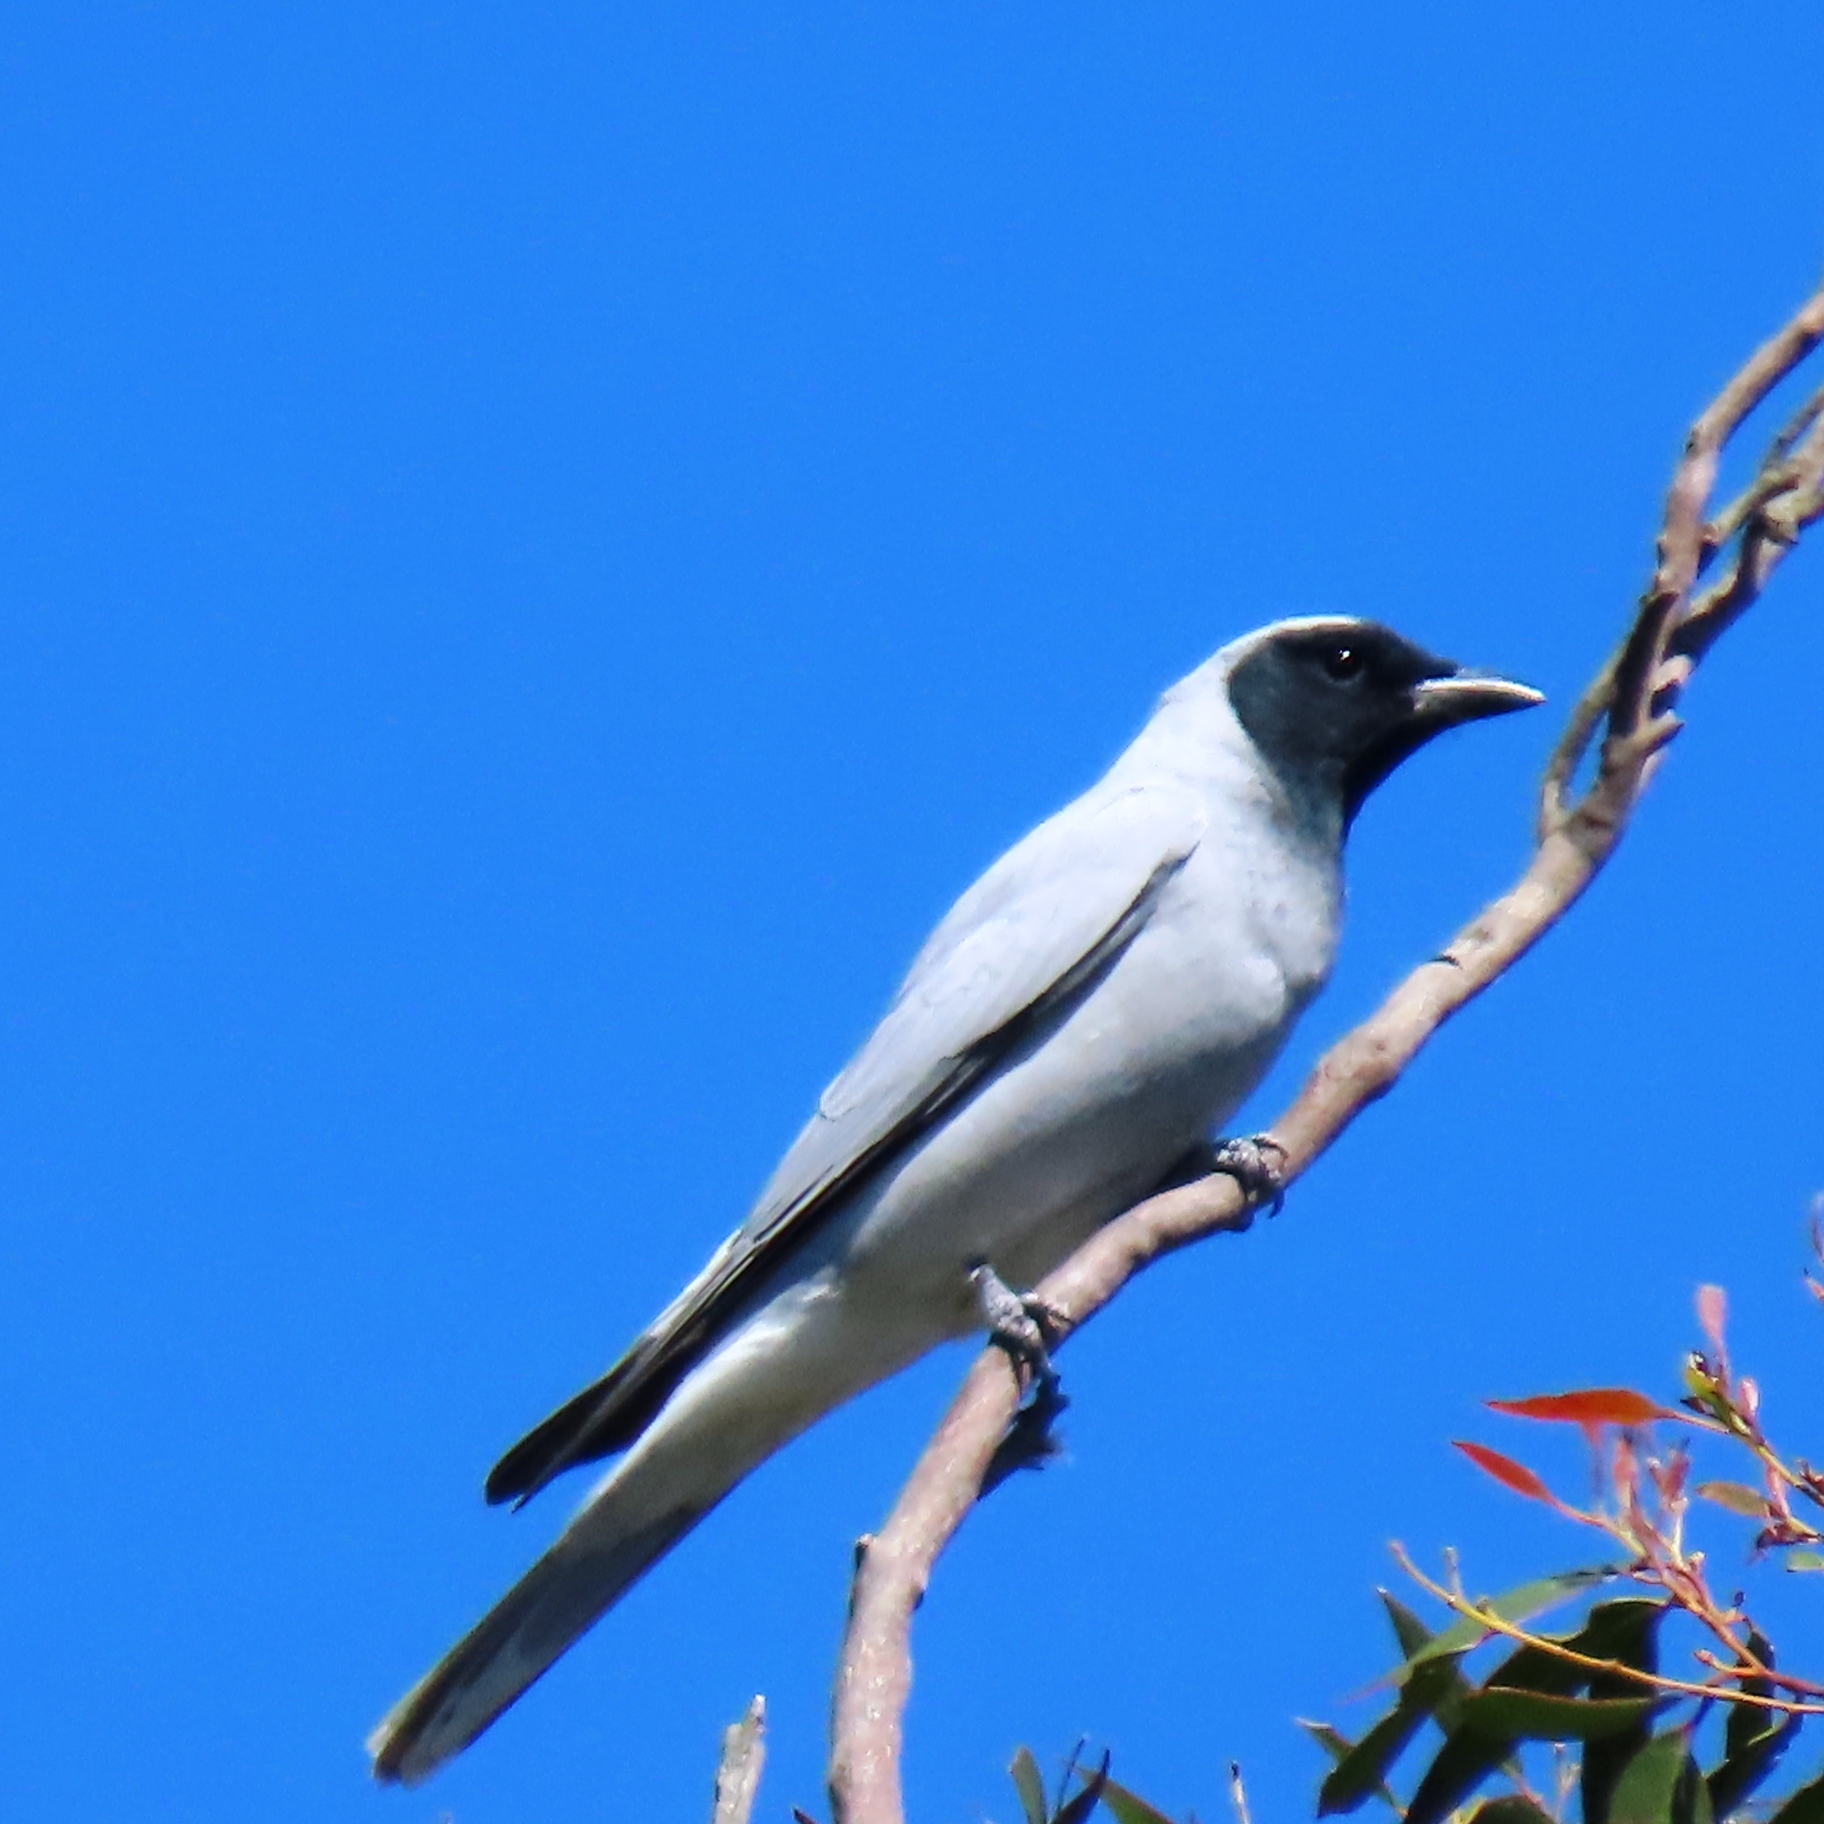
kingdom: Animalia
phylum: Chordata
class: Aves
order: Passeriformes
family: Campephagidae
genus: Coracina
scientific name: Coracina novaehollandiae
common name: Black-faced cuckooshrike
